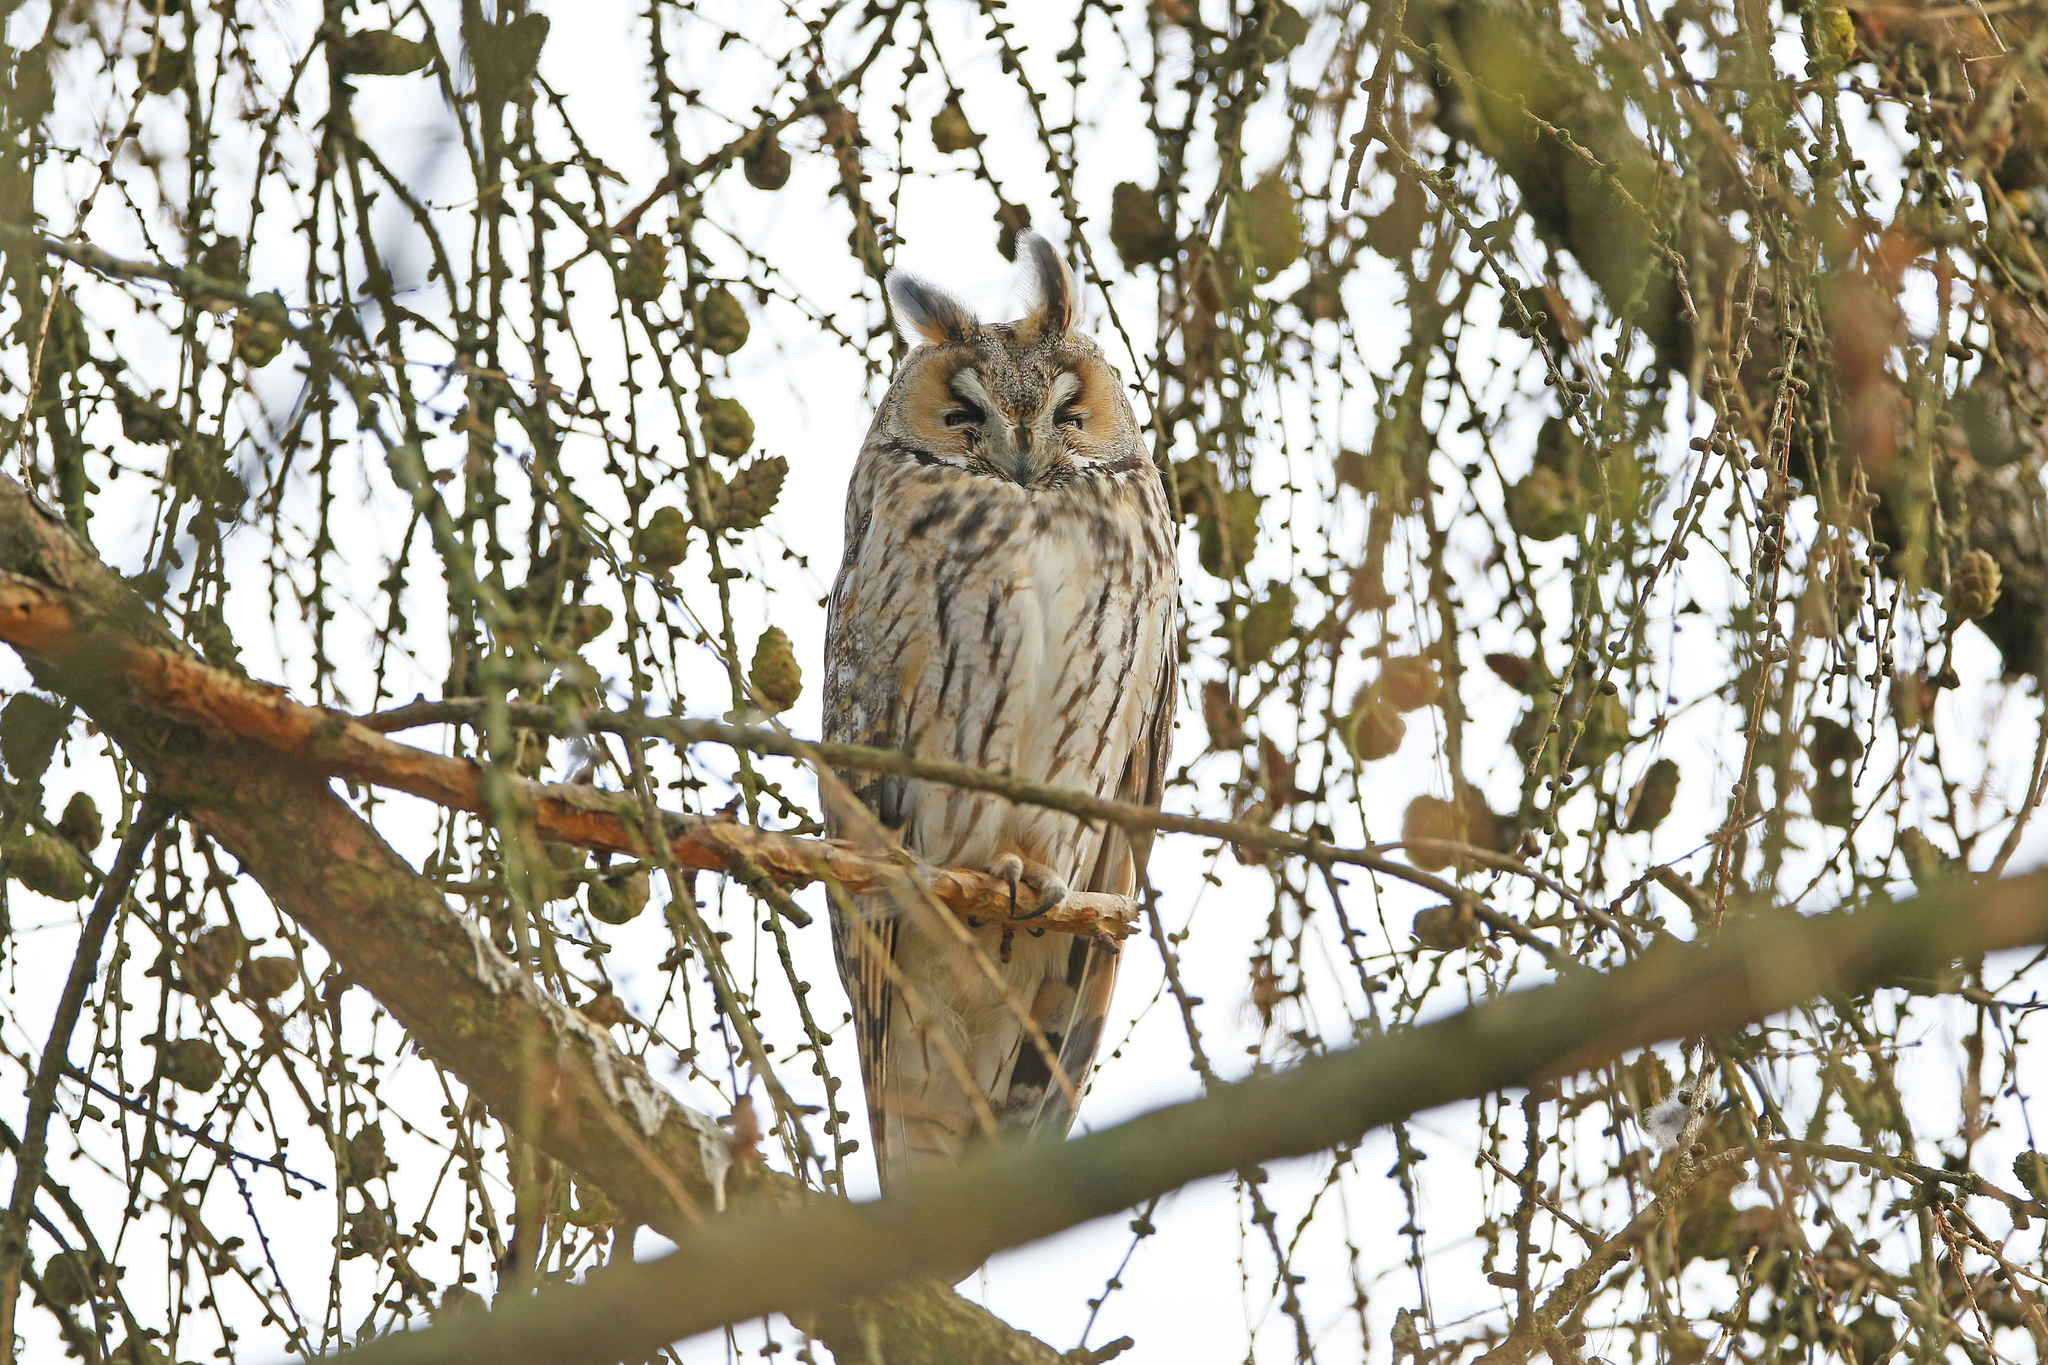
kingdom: Animalia
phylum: Chordata
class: Aves
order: Strigiformes
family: Strigidae
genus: Asio
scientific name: Asio otus
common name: Long-eared owl
